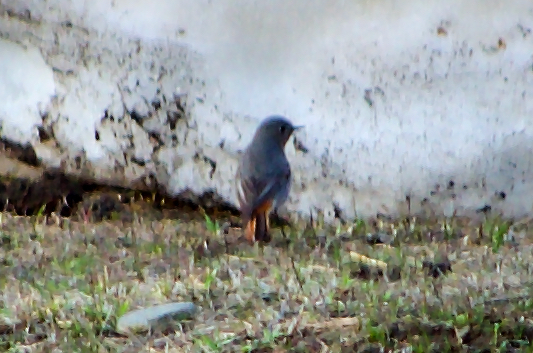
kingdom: Animalia
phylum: Chordata
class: Aves
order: Passeriformes
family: Muscicapidae
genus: Phoenicurus
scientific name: Phoenicurus ochruros
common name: Black redstart
